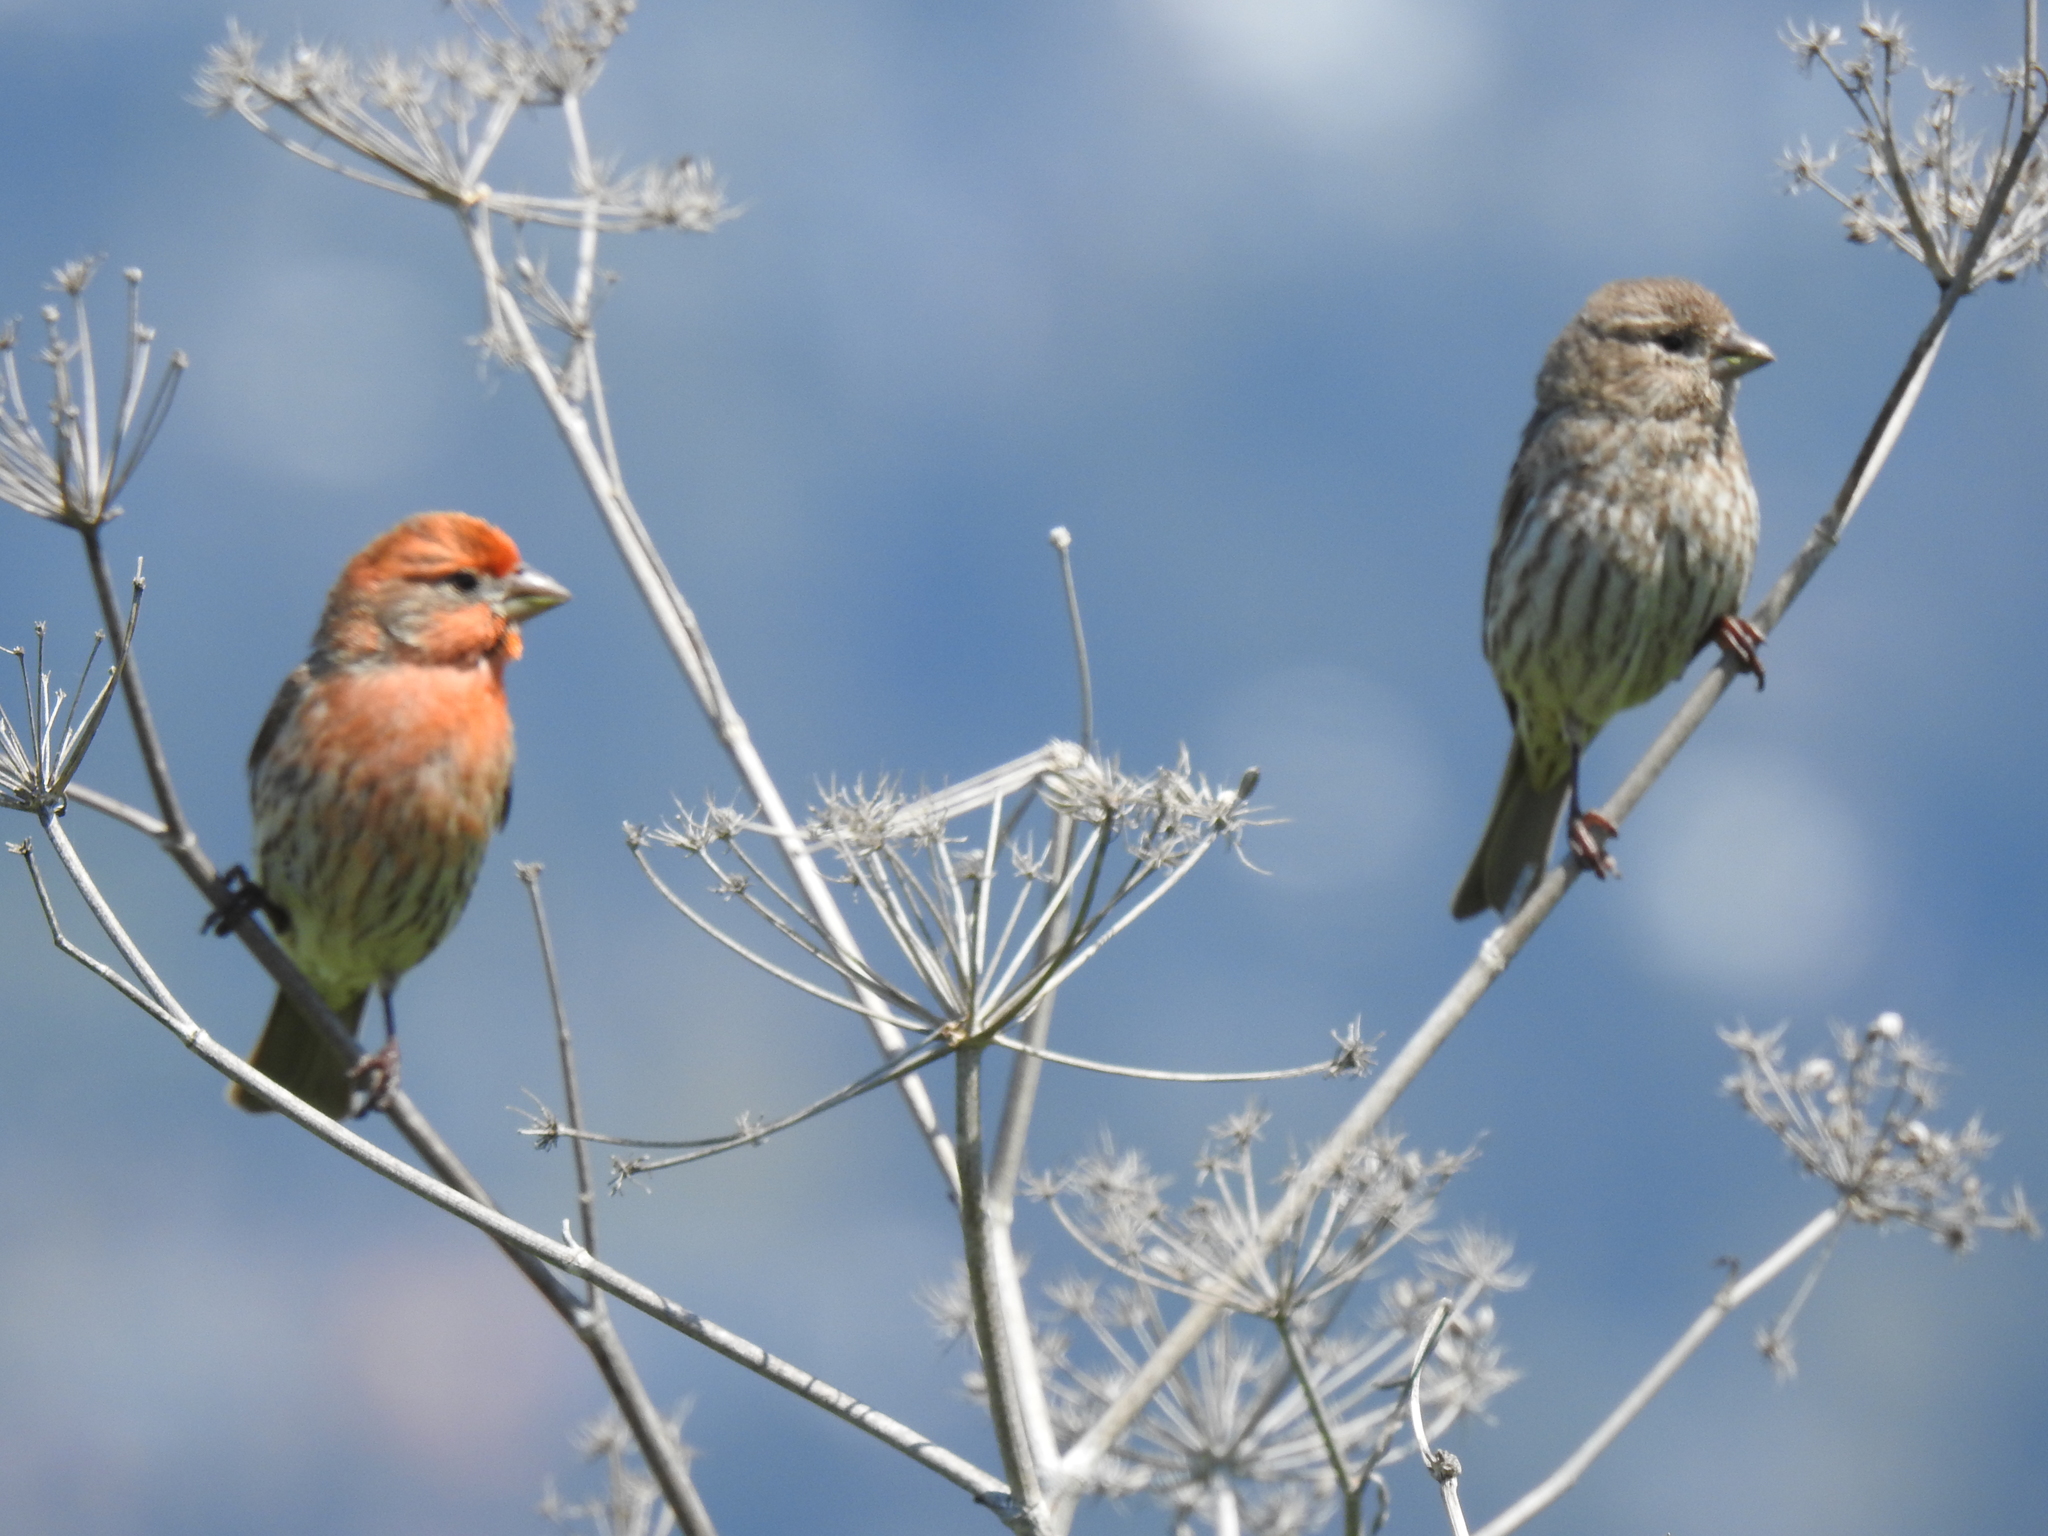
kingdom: Animalia
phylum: Chordata
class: Aves
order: Passeriformes
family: Fringillidae
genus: Haemorhous
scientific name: Haemorhous mexicanus
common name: House finch
